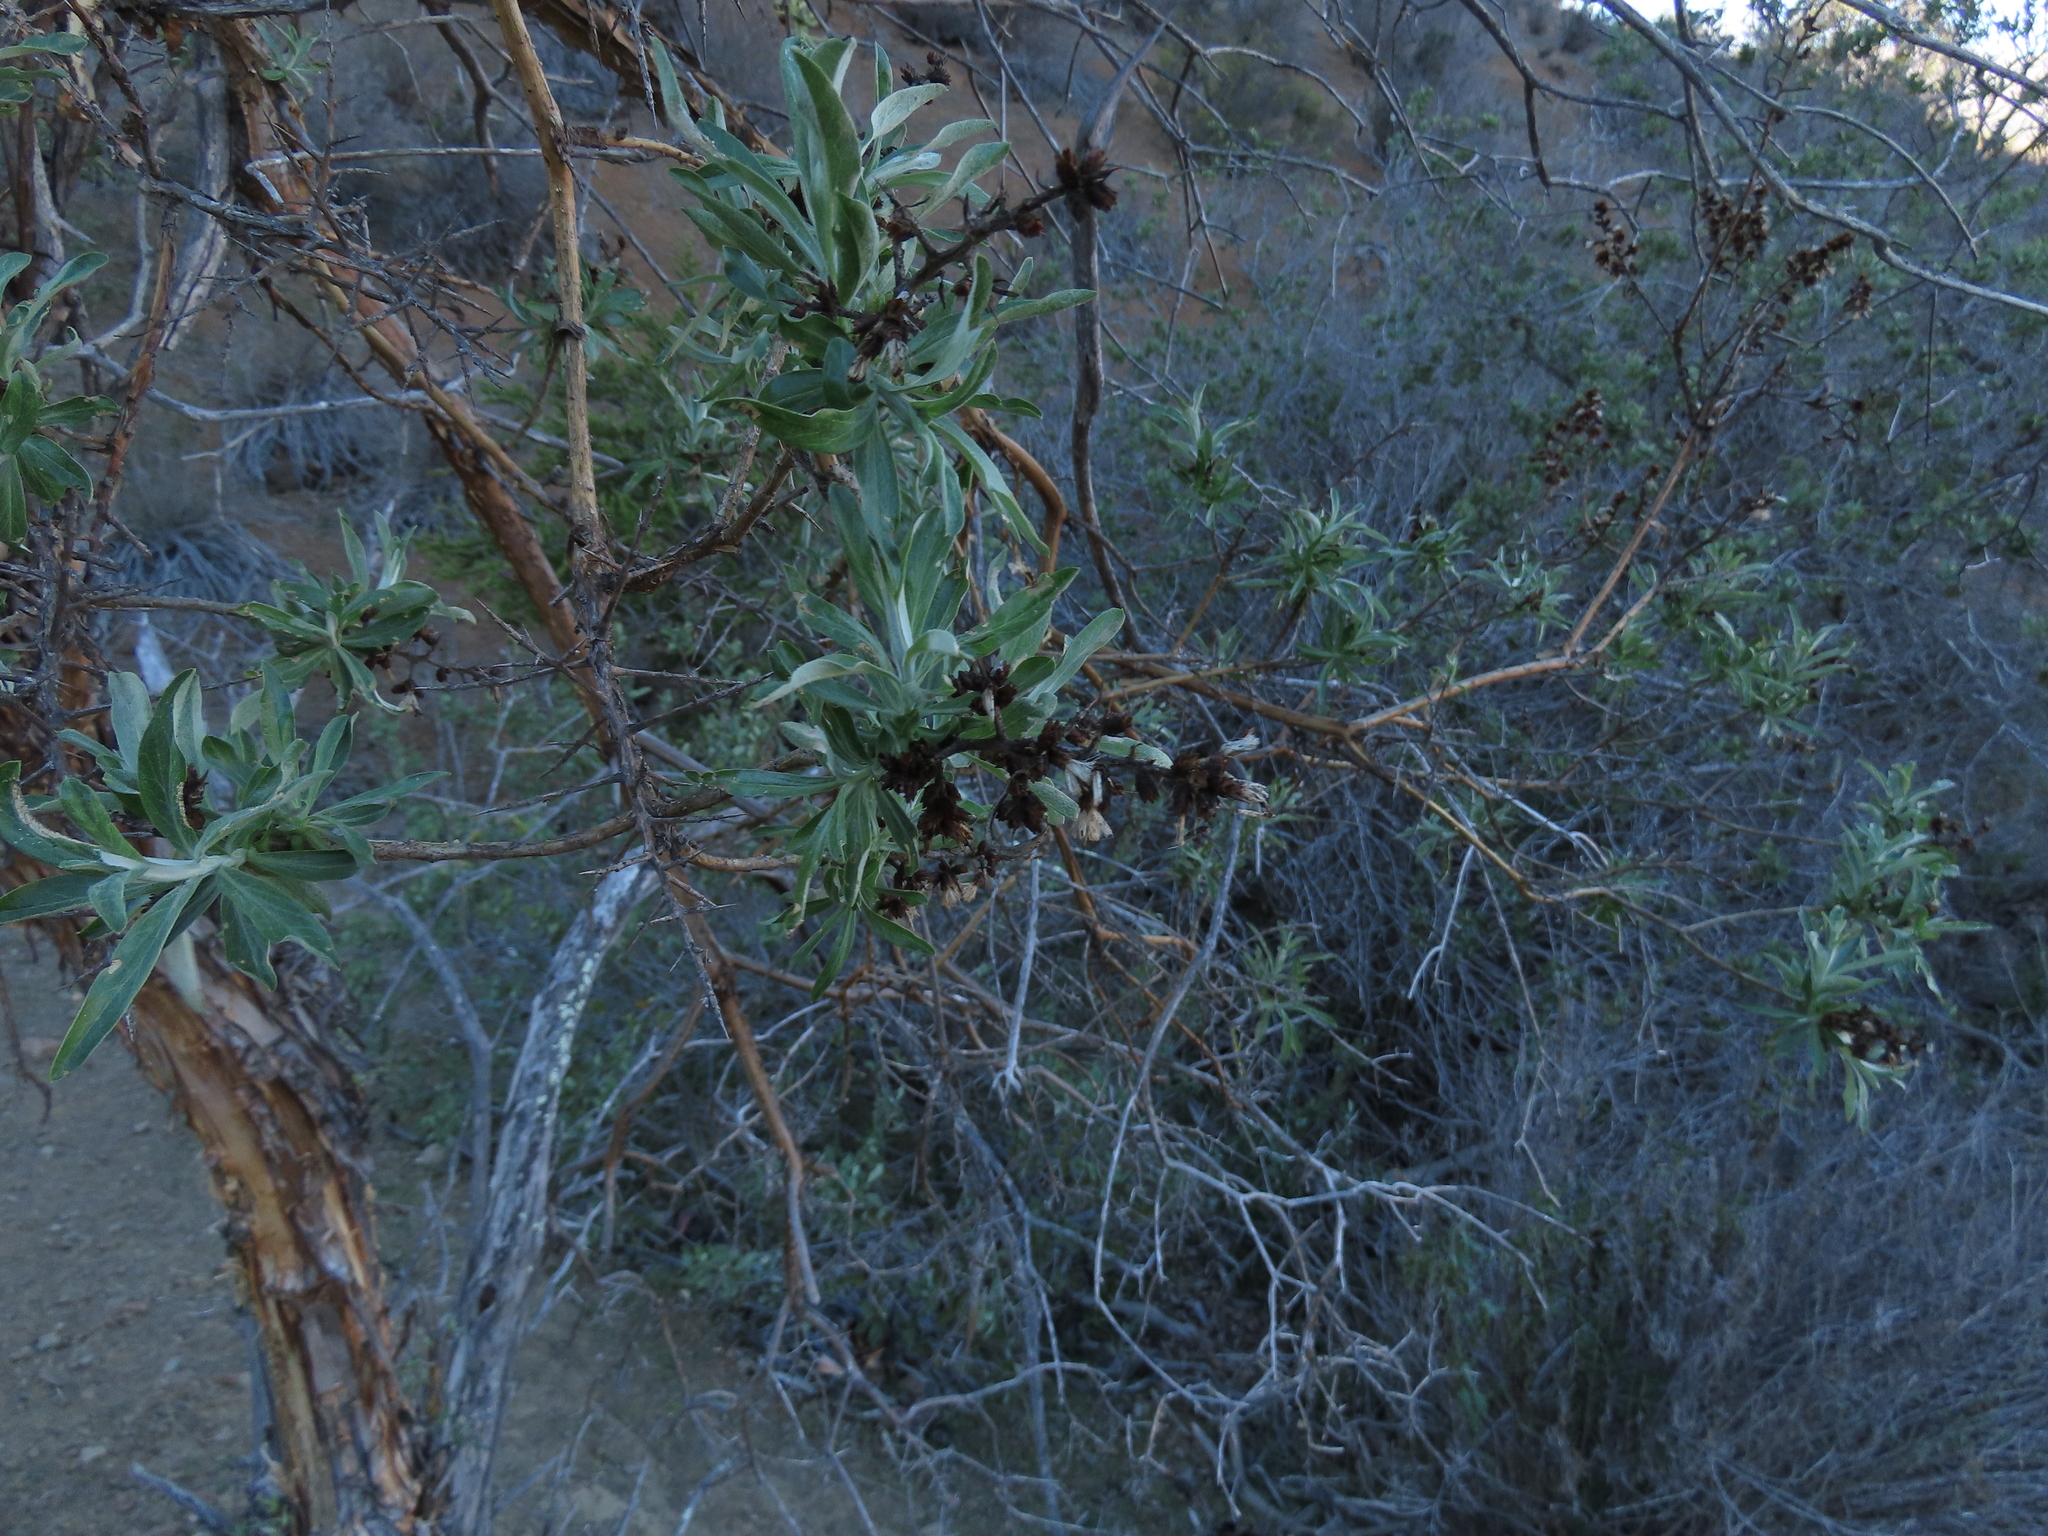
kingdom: Plantae
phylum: Tracheophyta
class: Magnoliopsida
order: Asterales
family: Asteraceae
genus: Proustia
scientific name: Proustia cuneifolia
